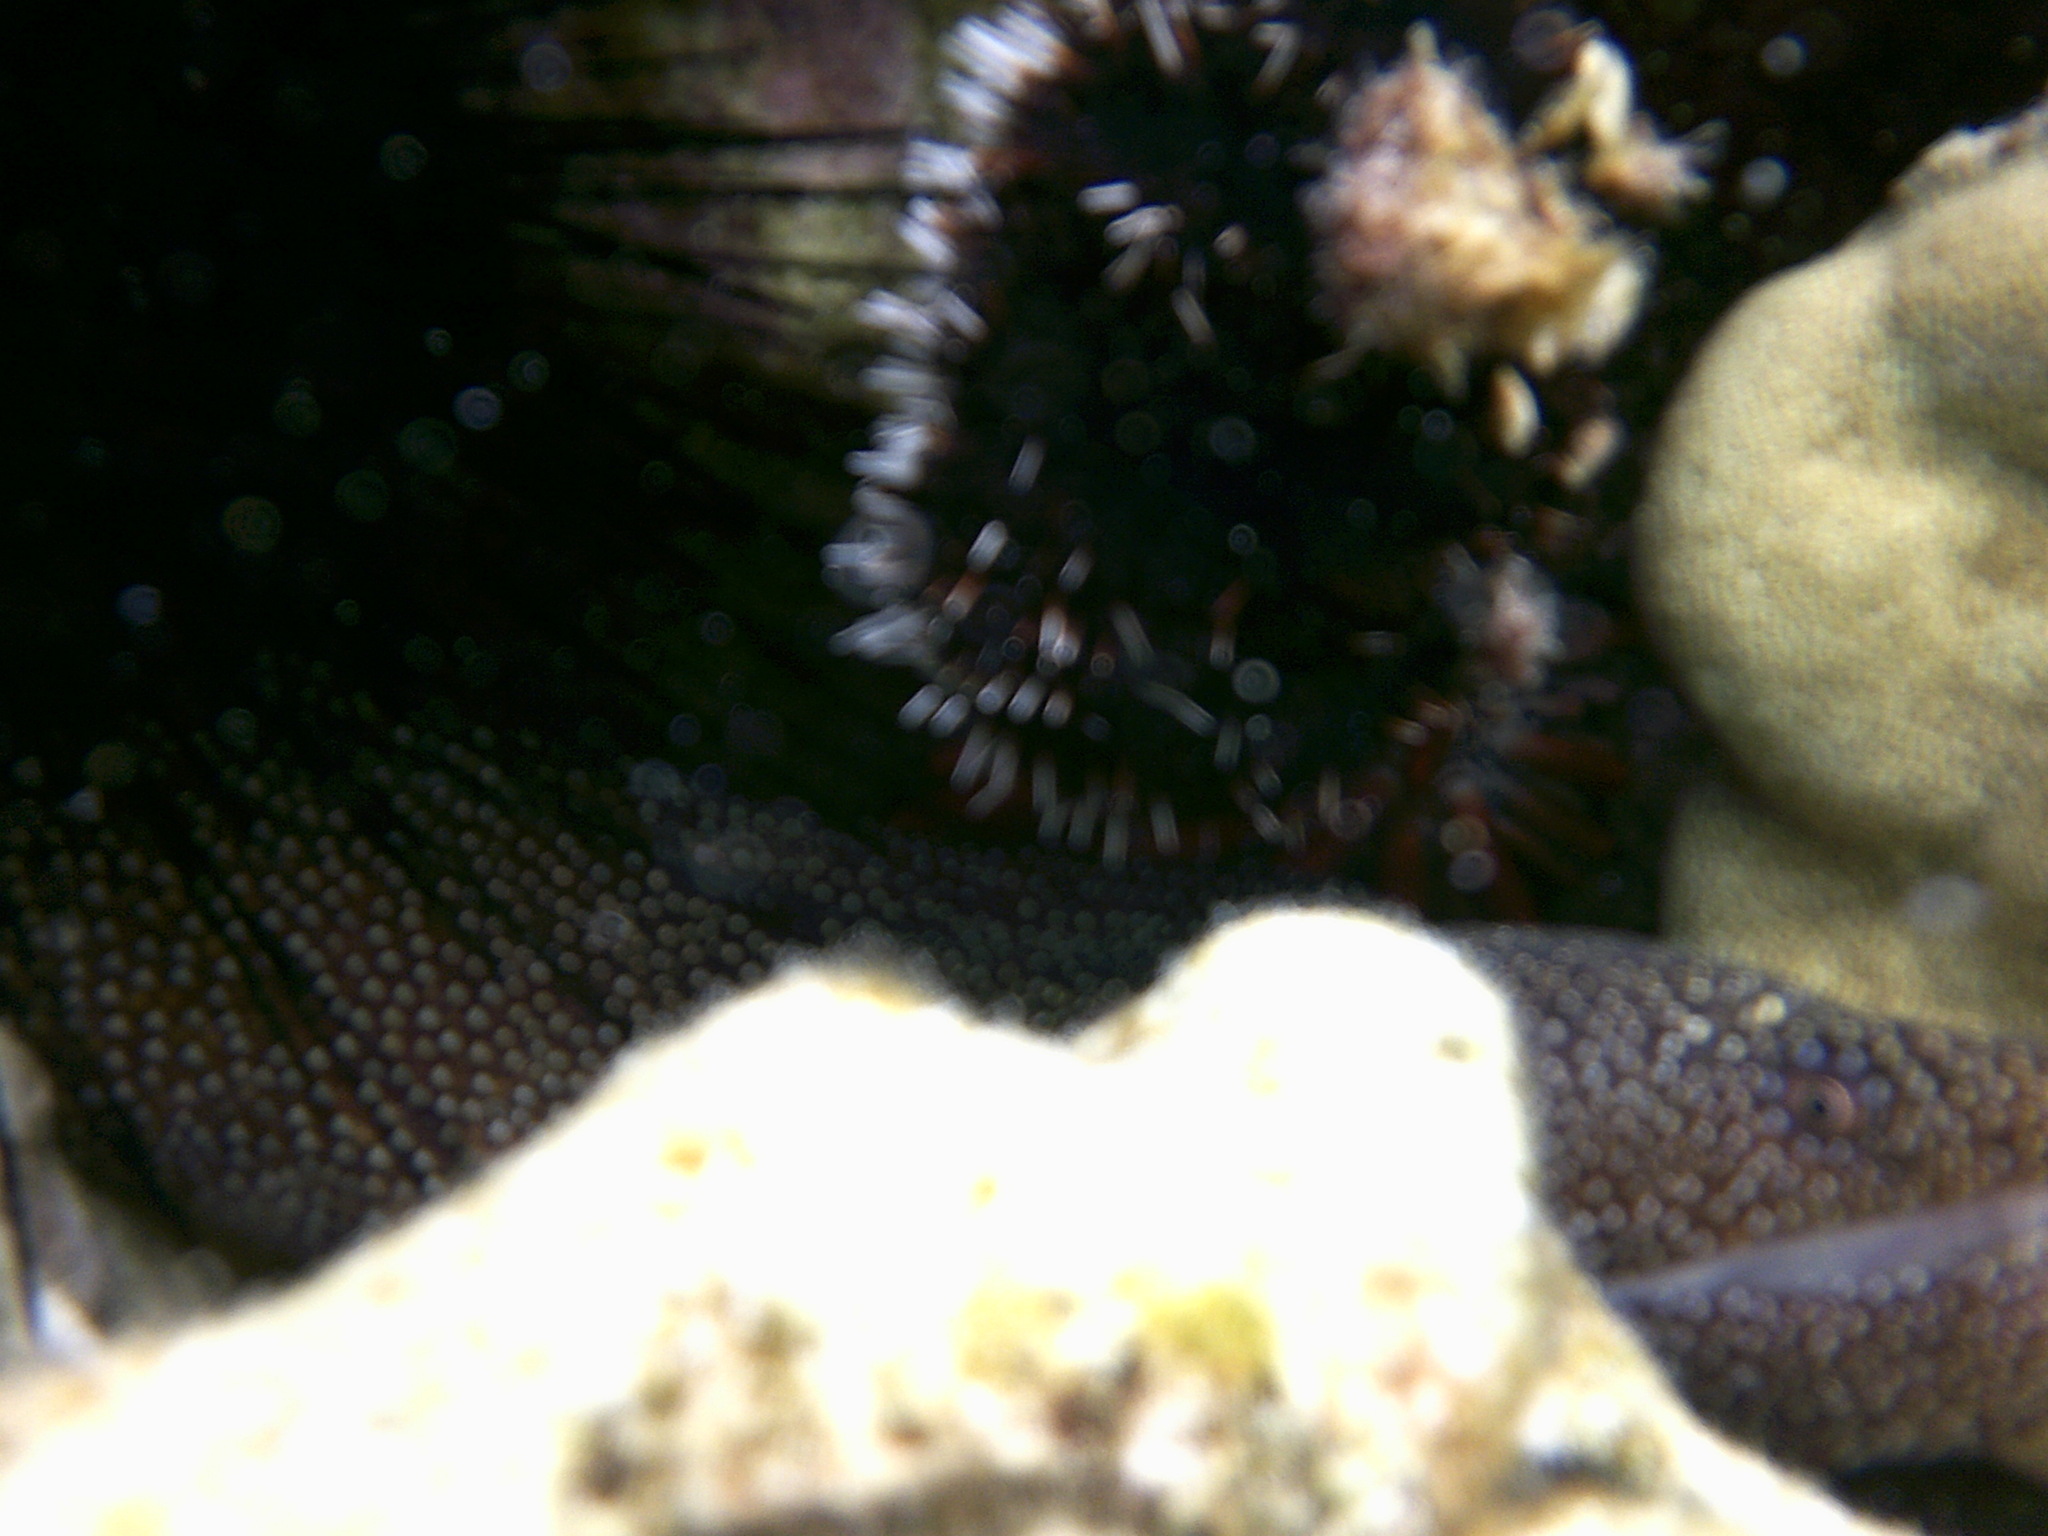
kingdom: Animalia
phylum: Chordata
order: Anguilliformes
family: Muraenidae
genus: Gymnothorax
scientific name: Gymnothorax meleagris
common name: Guineafowl moray
